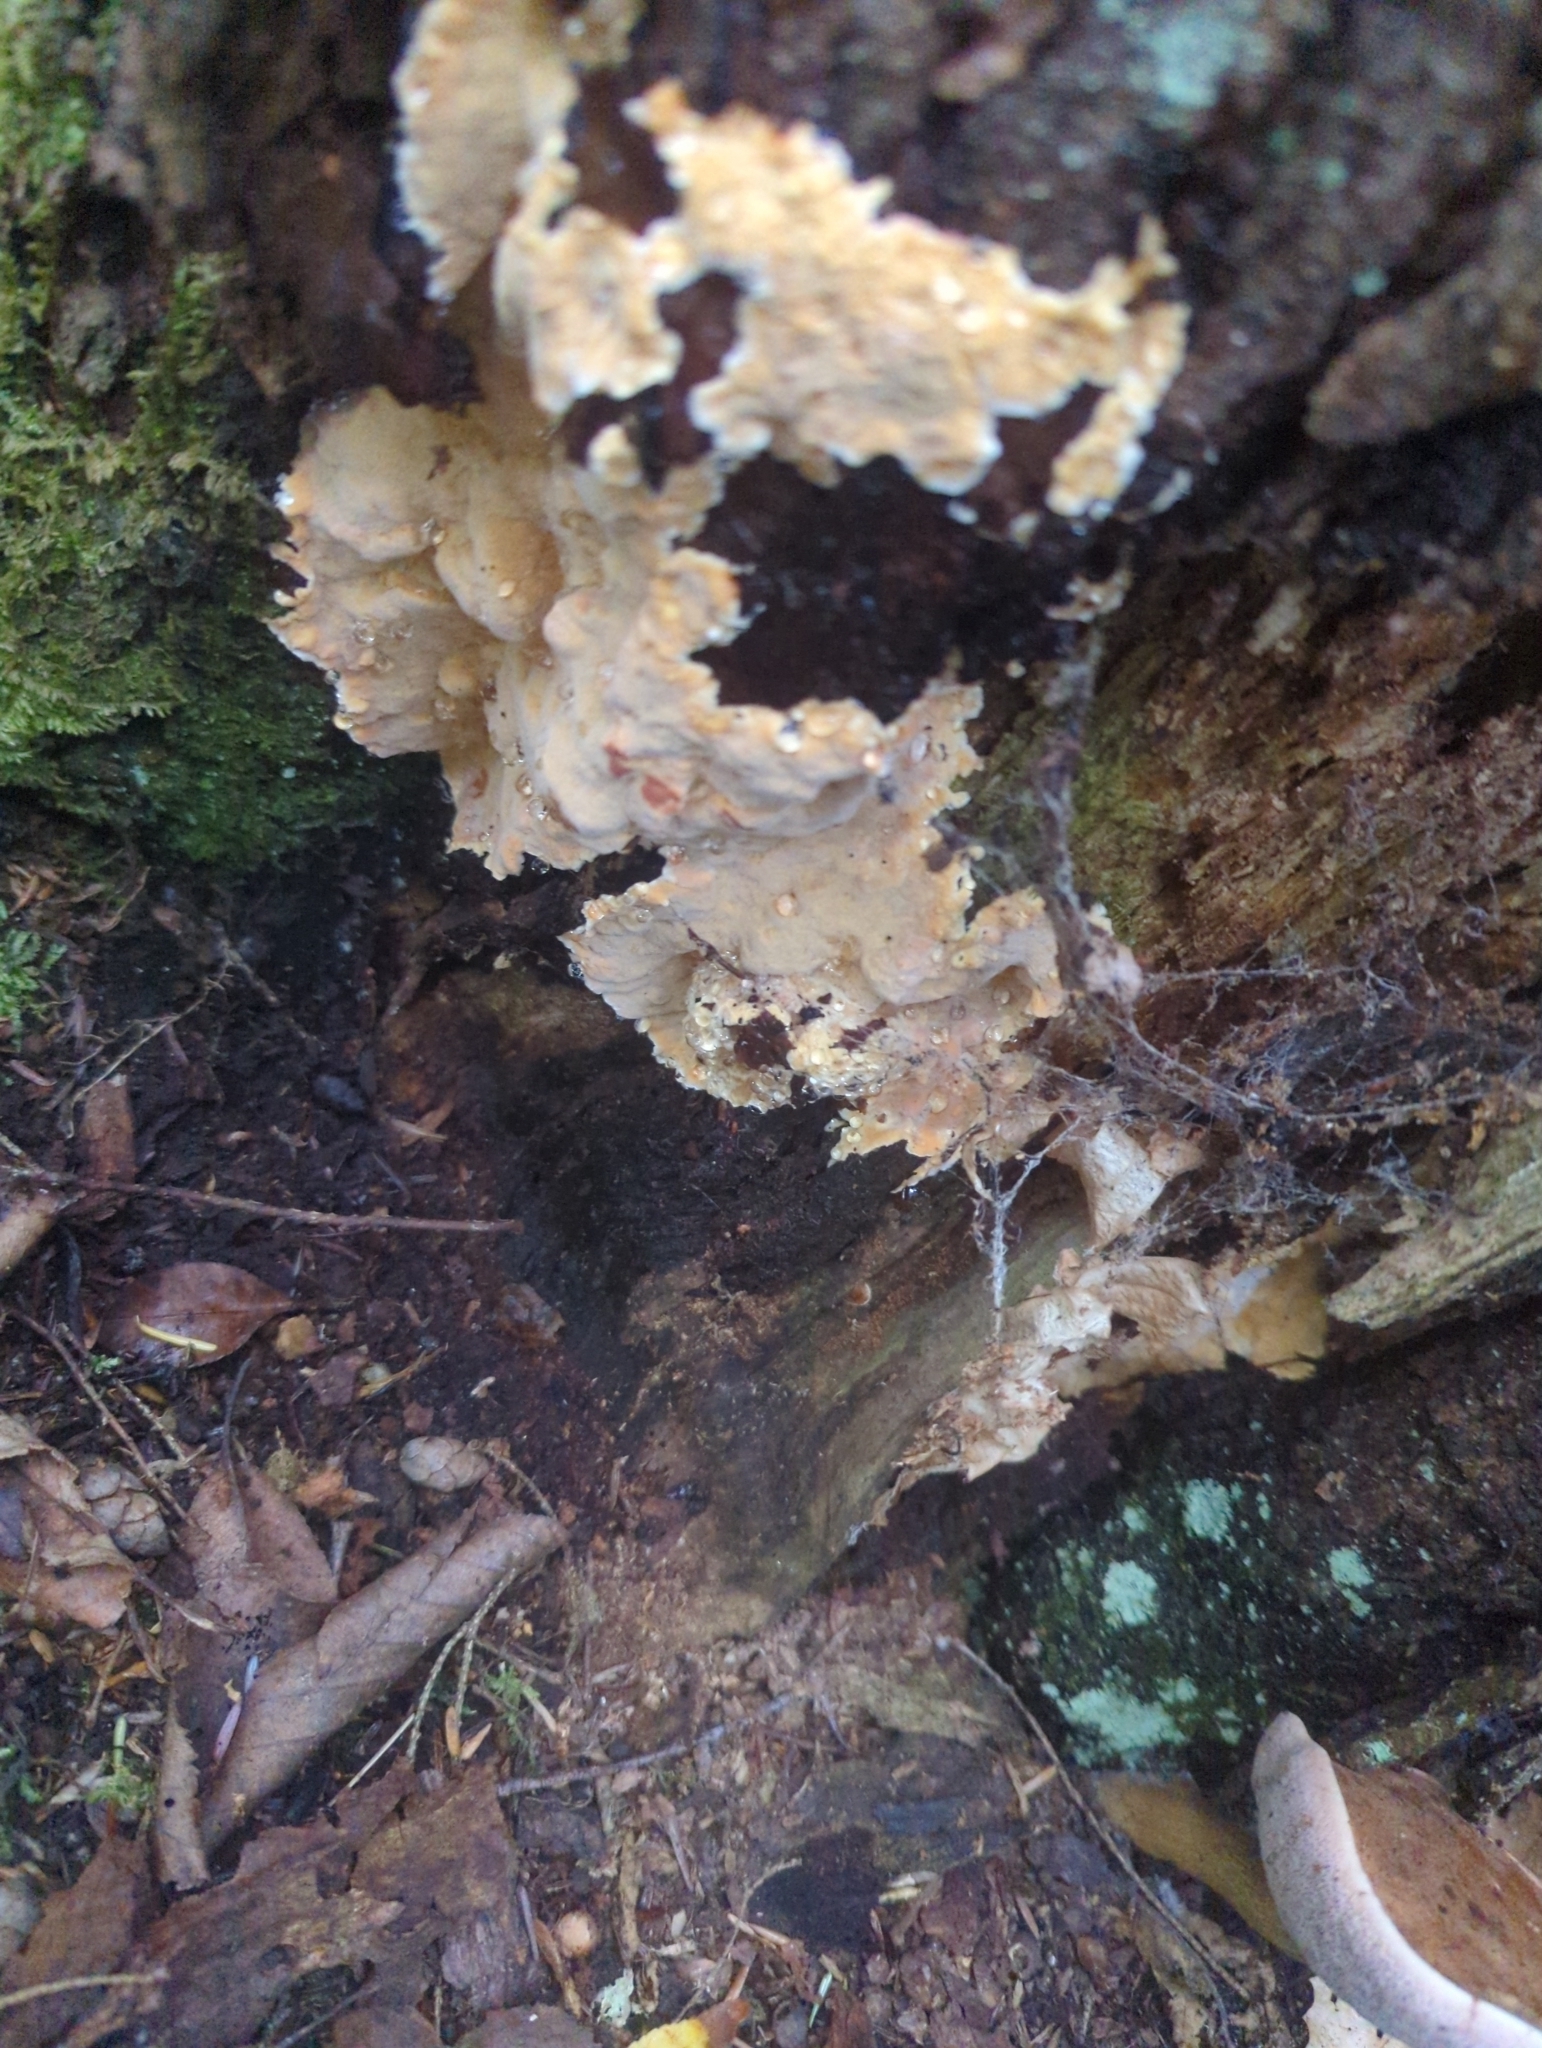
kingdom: Fungi
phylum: Basidiomycota
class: Agaricomycetes
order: Polyporales
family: Irpicaceae
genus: Ceriporia
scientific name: Ceriporia spissa
